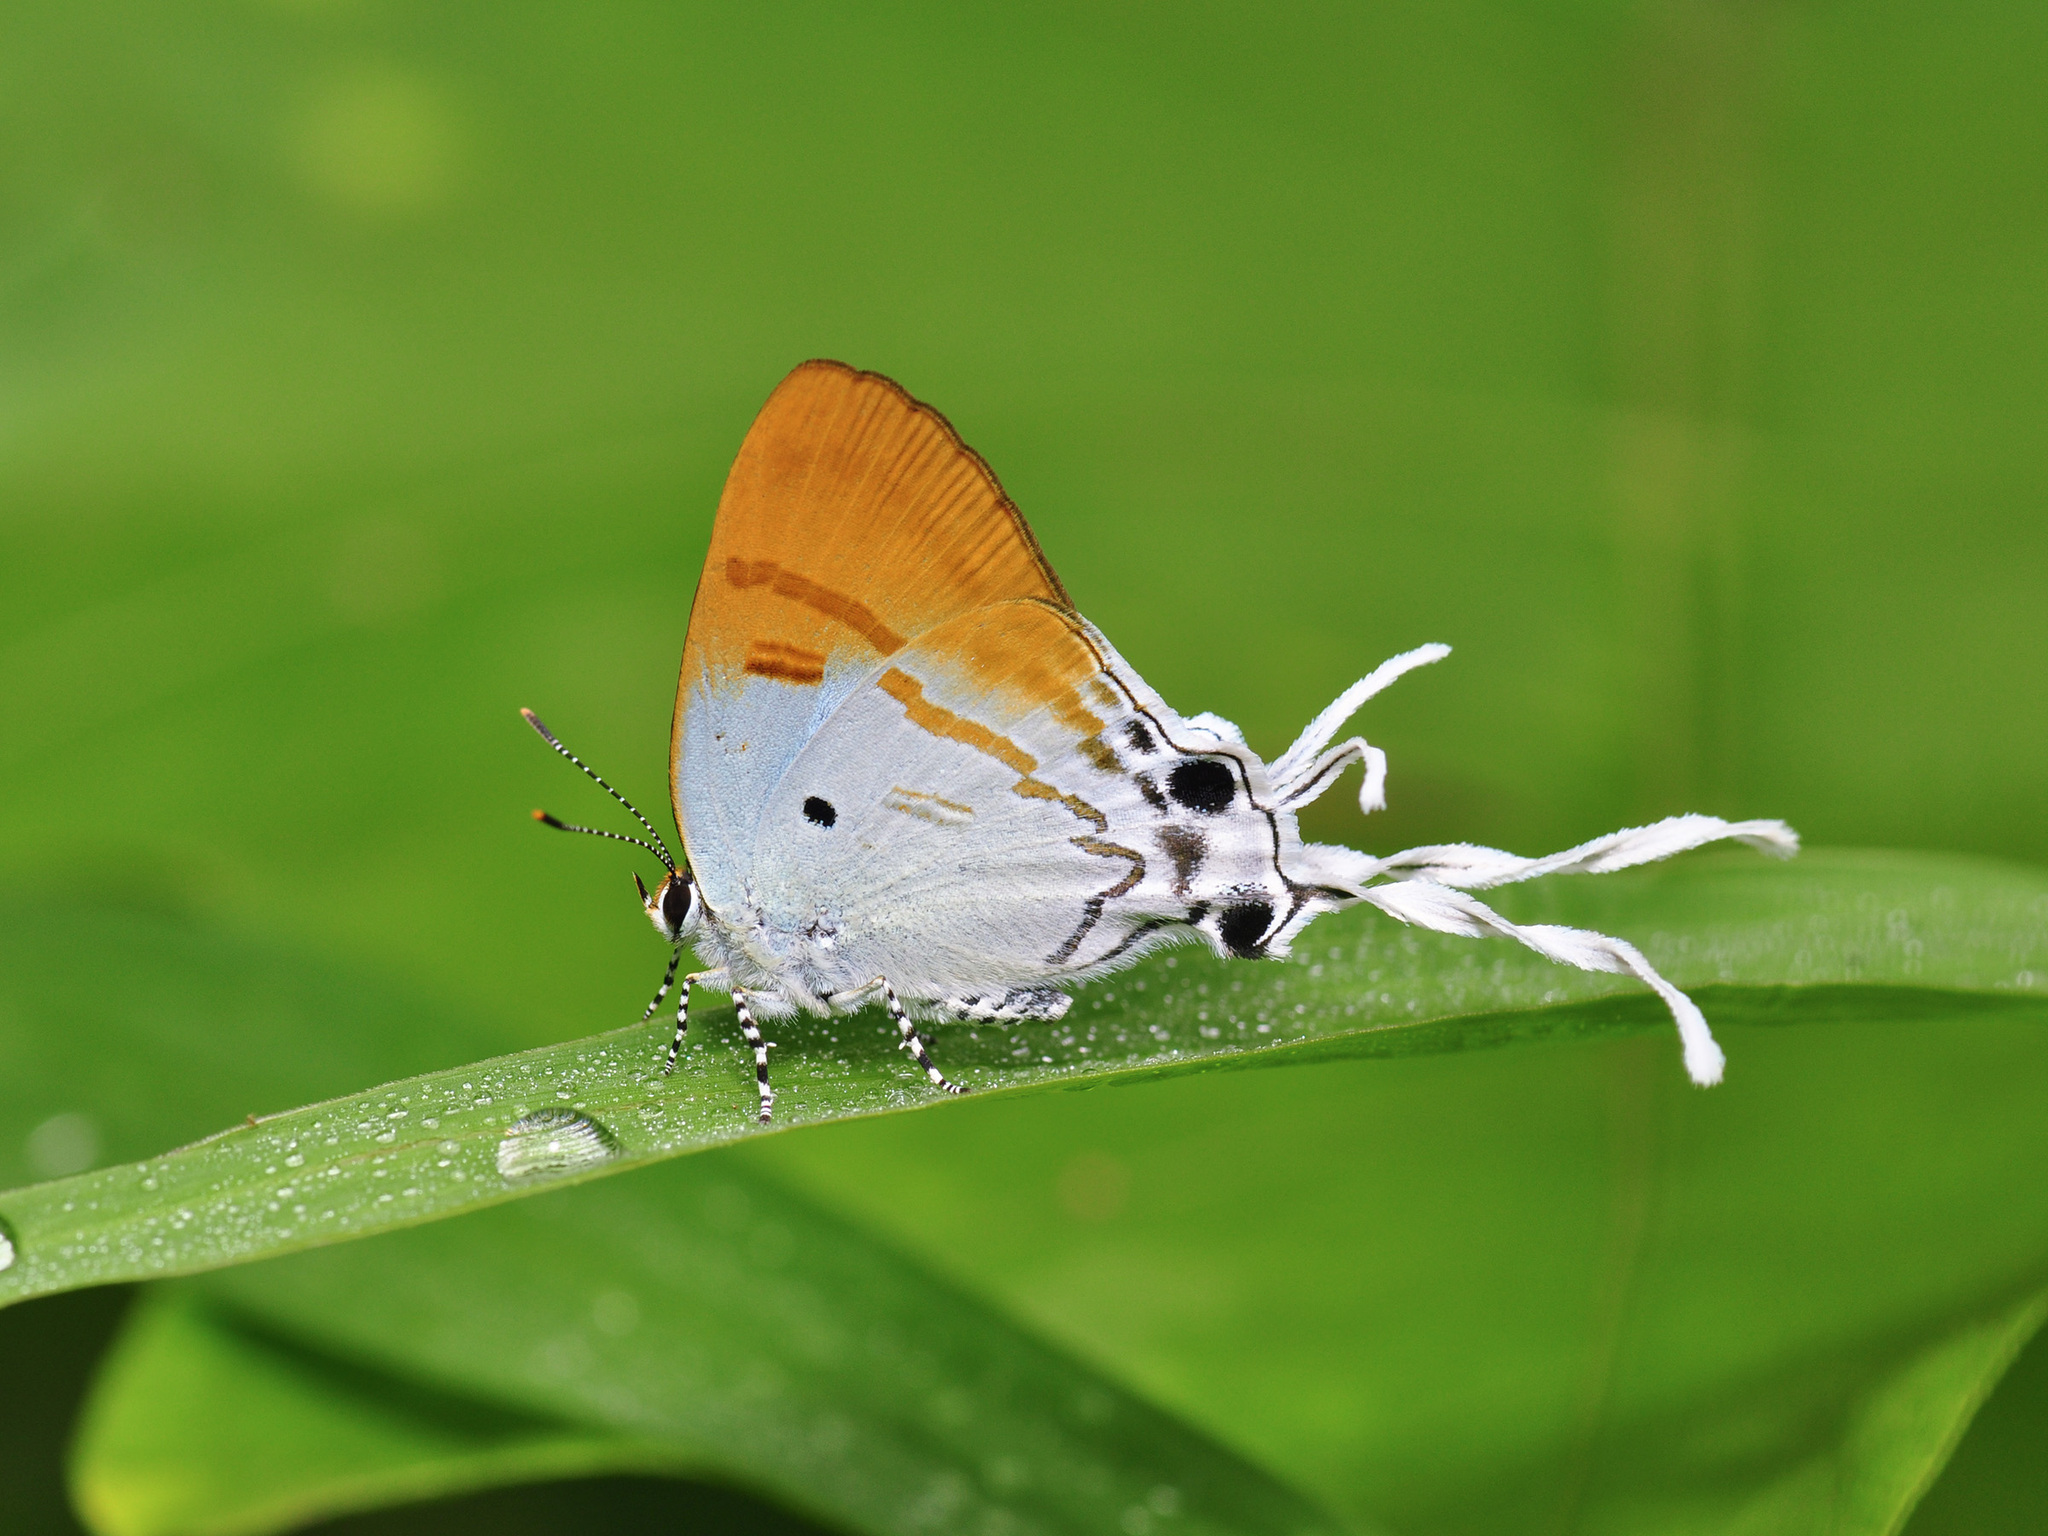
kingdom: Animalia
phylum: Arthropoda
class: Insecta
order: Lepidoptera
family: Lycaenidae
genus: Zeltus
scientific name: Zeltus amasa
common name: Fluffy tit
